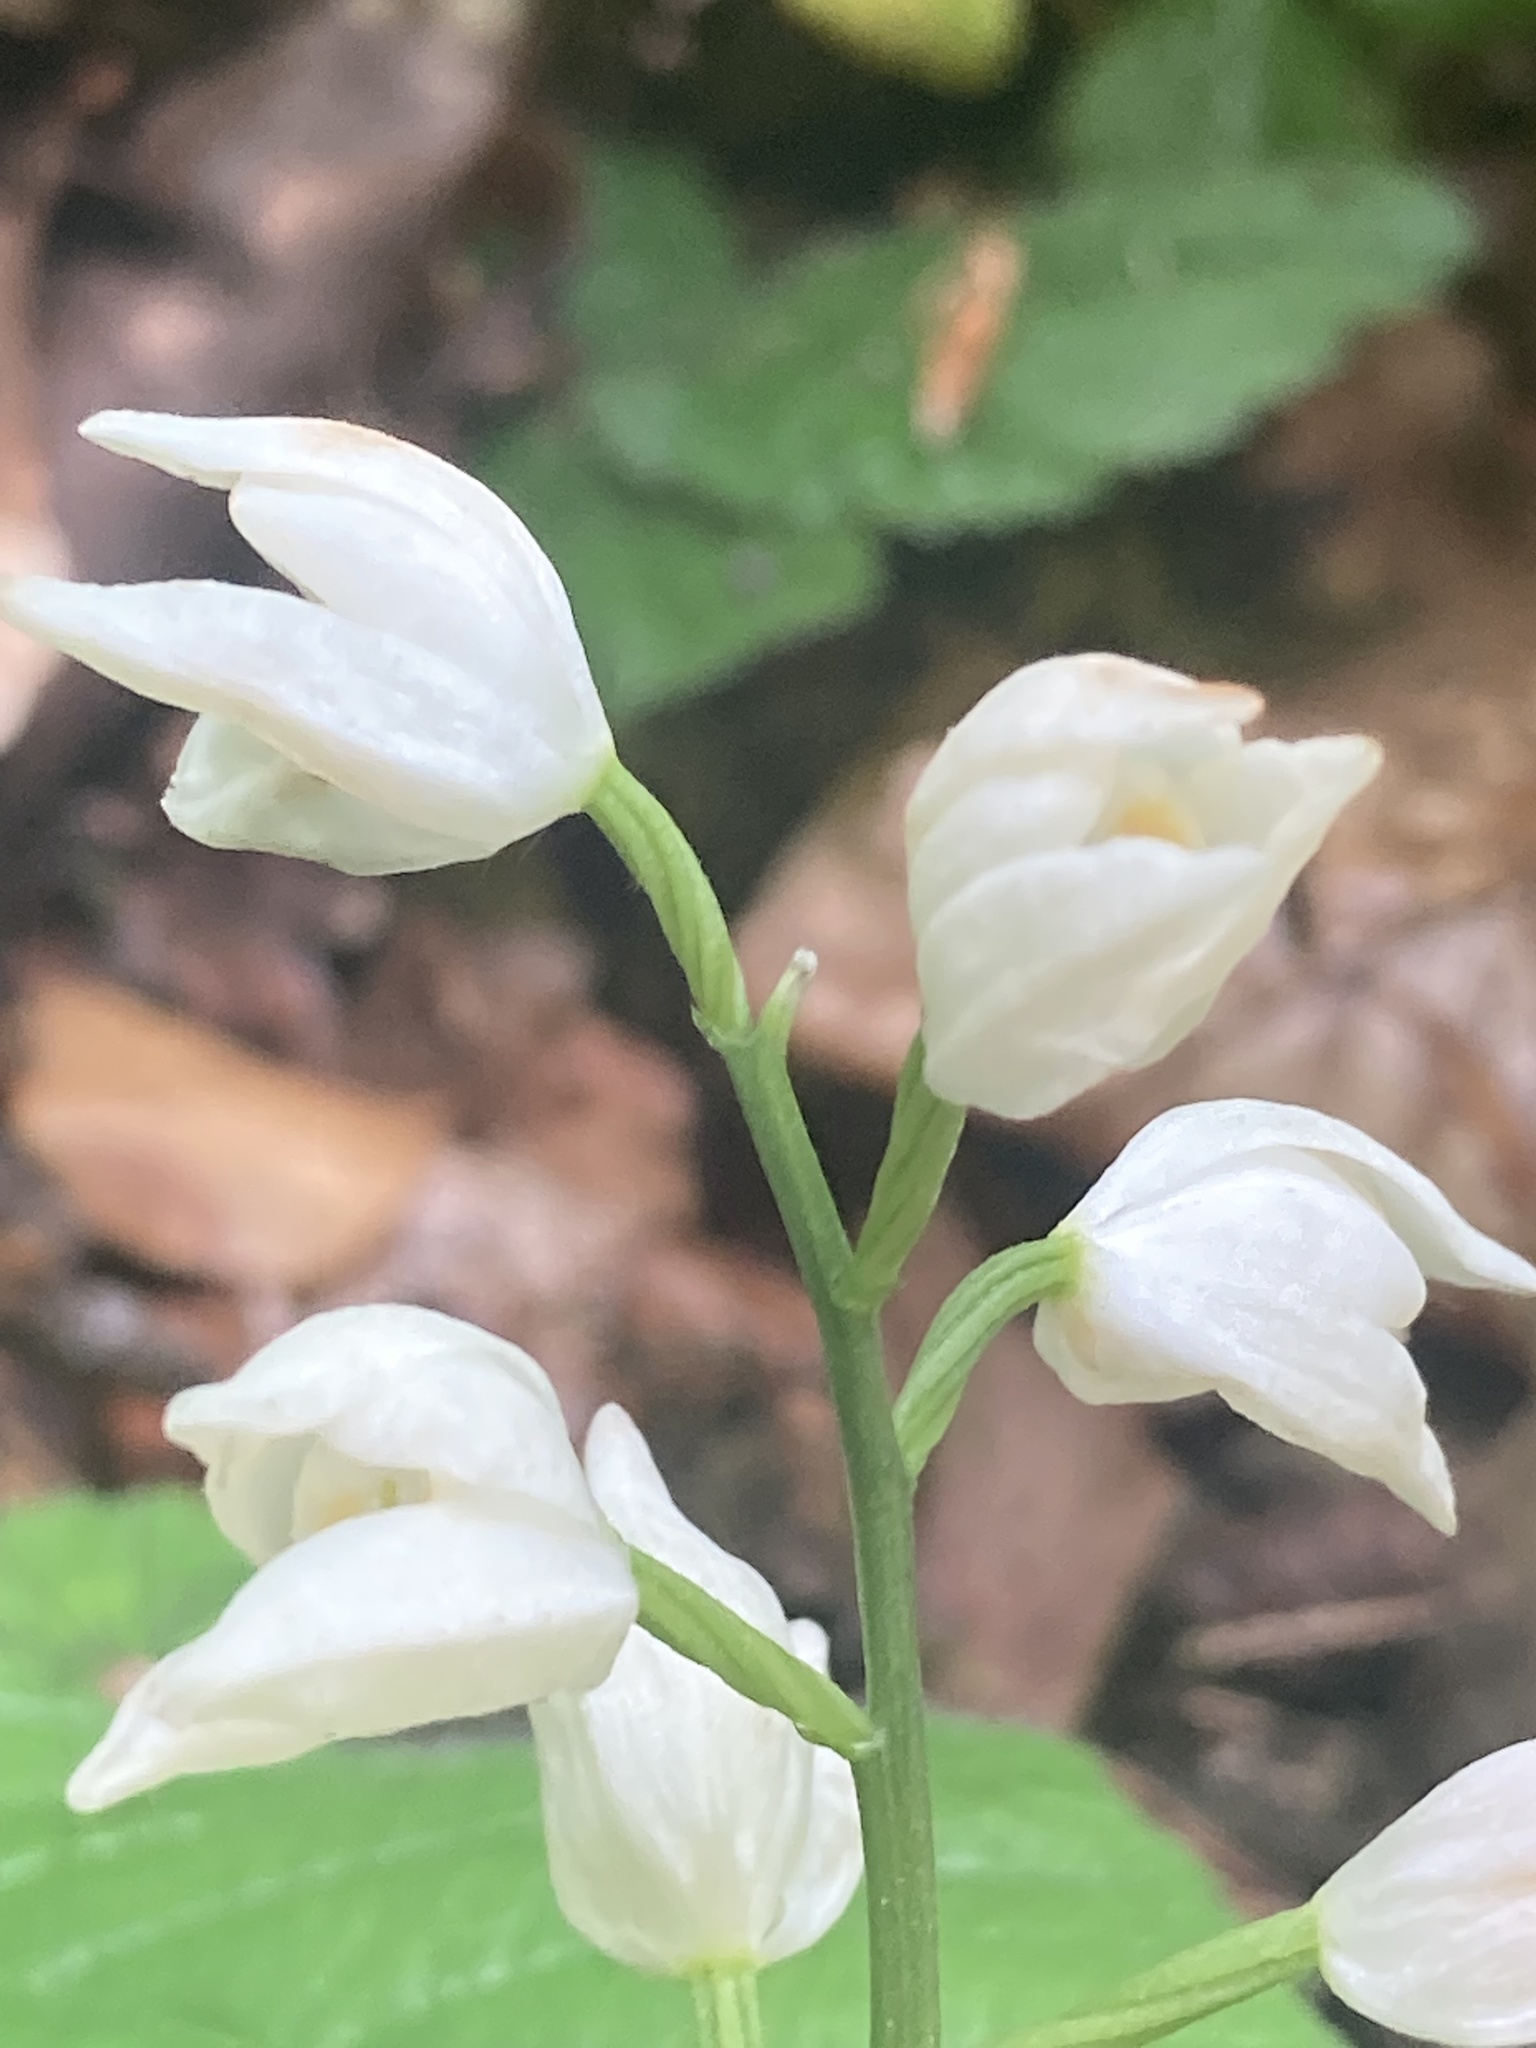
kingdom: Plantae
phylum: Tracheophyta
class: Liliopsida
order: Asparagales
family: Orchidaceae
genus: Cephalanthera
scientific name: Cephalanthera longifolia
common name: Narrow-leaved helleborine
